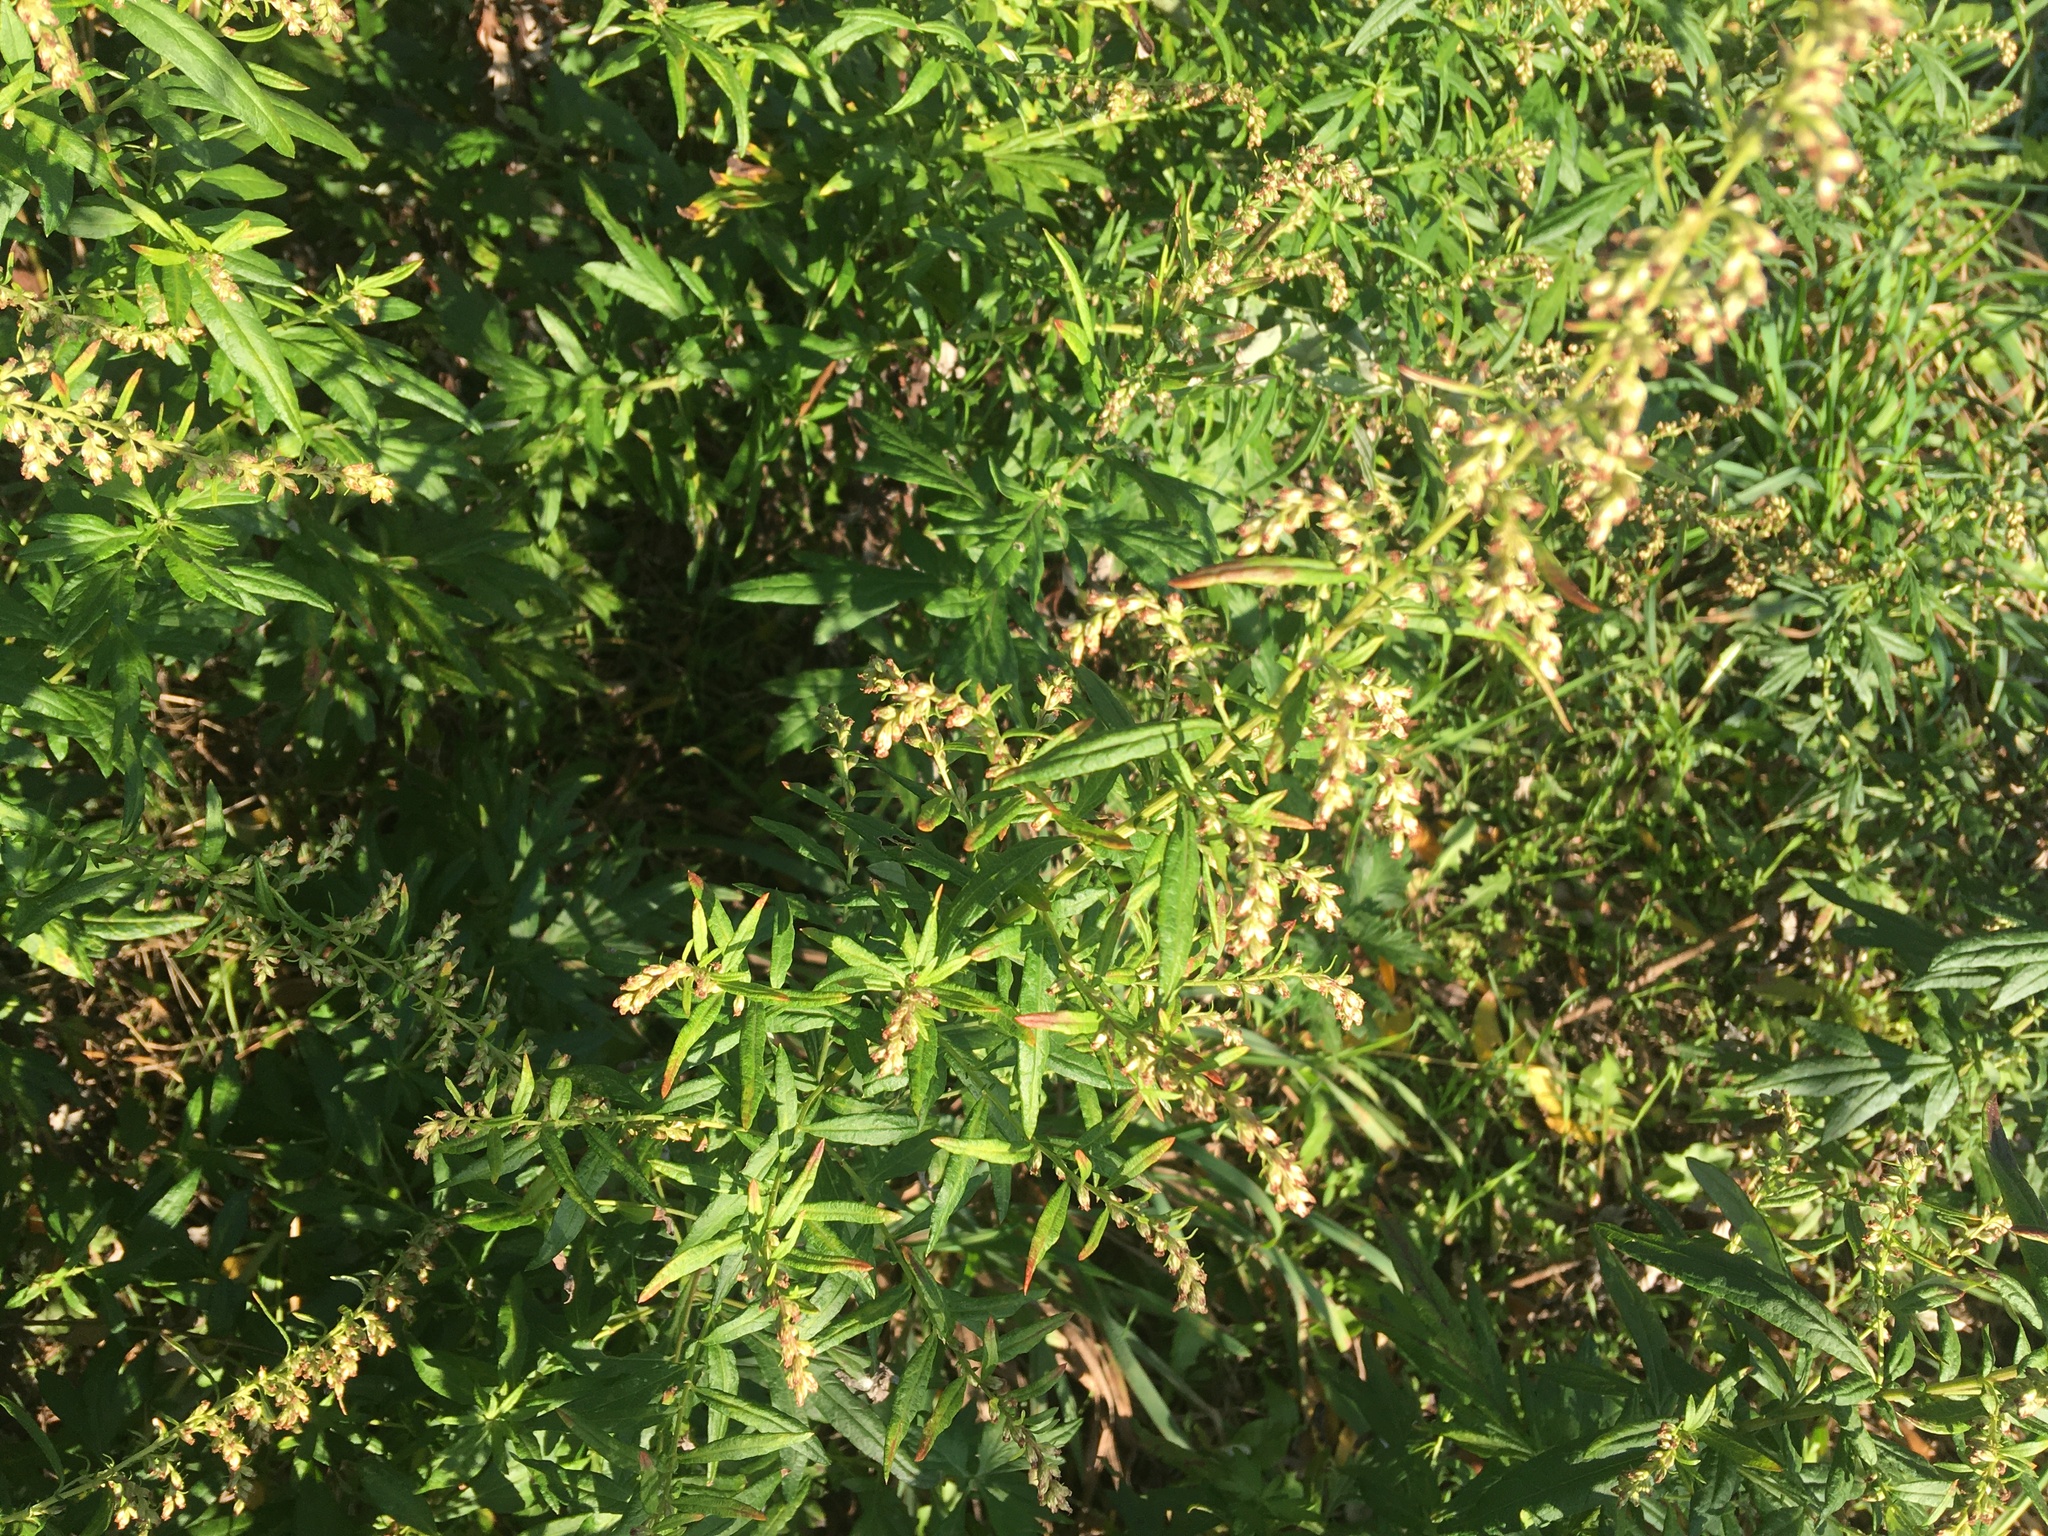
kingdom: Plantae
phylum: Tracheophyta
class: Magnoliopsida
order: Asterales
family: Asteraceae
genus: Artemisia
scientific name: Artemisia vulgaris
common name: Mugwort
